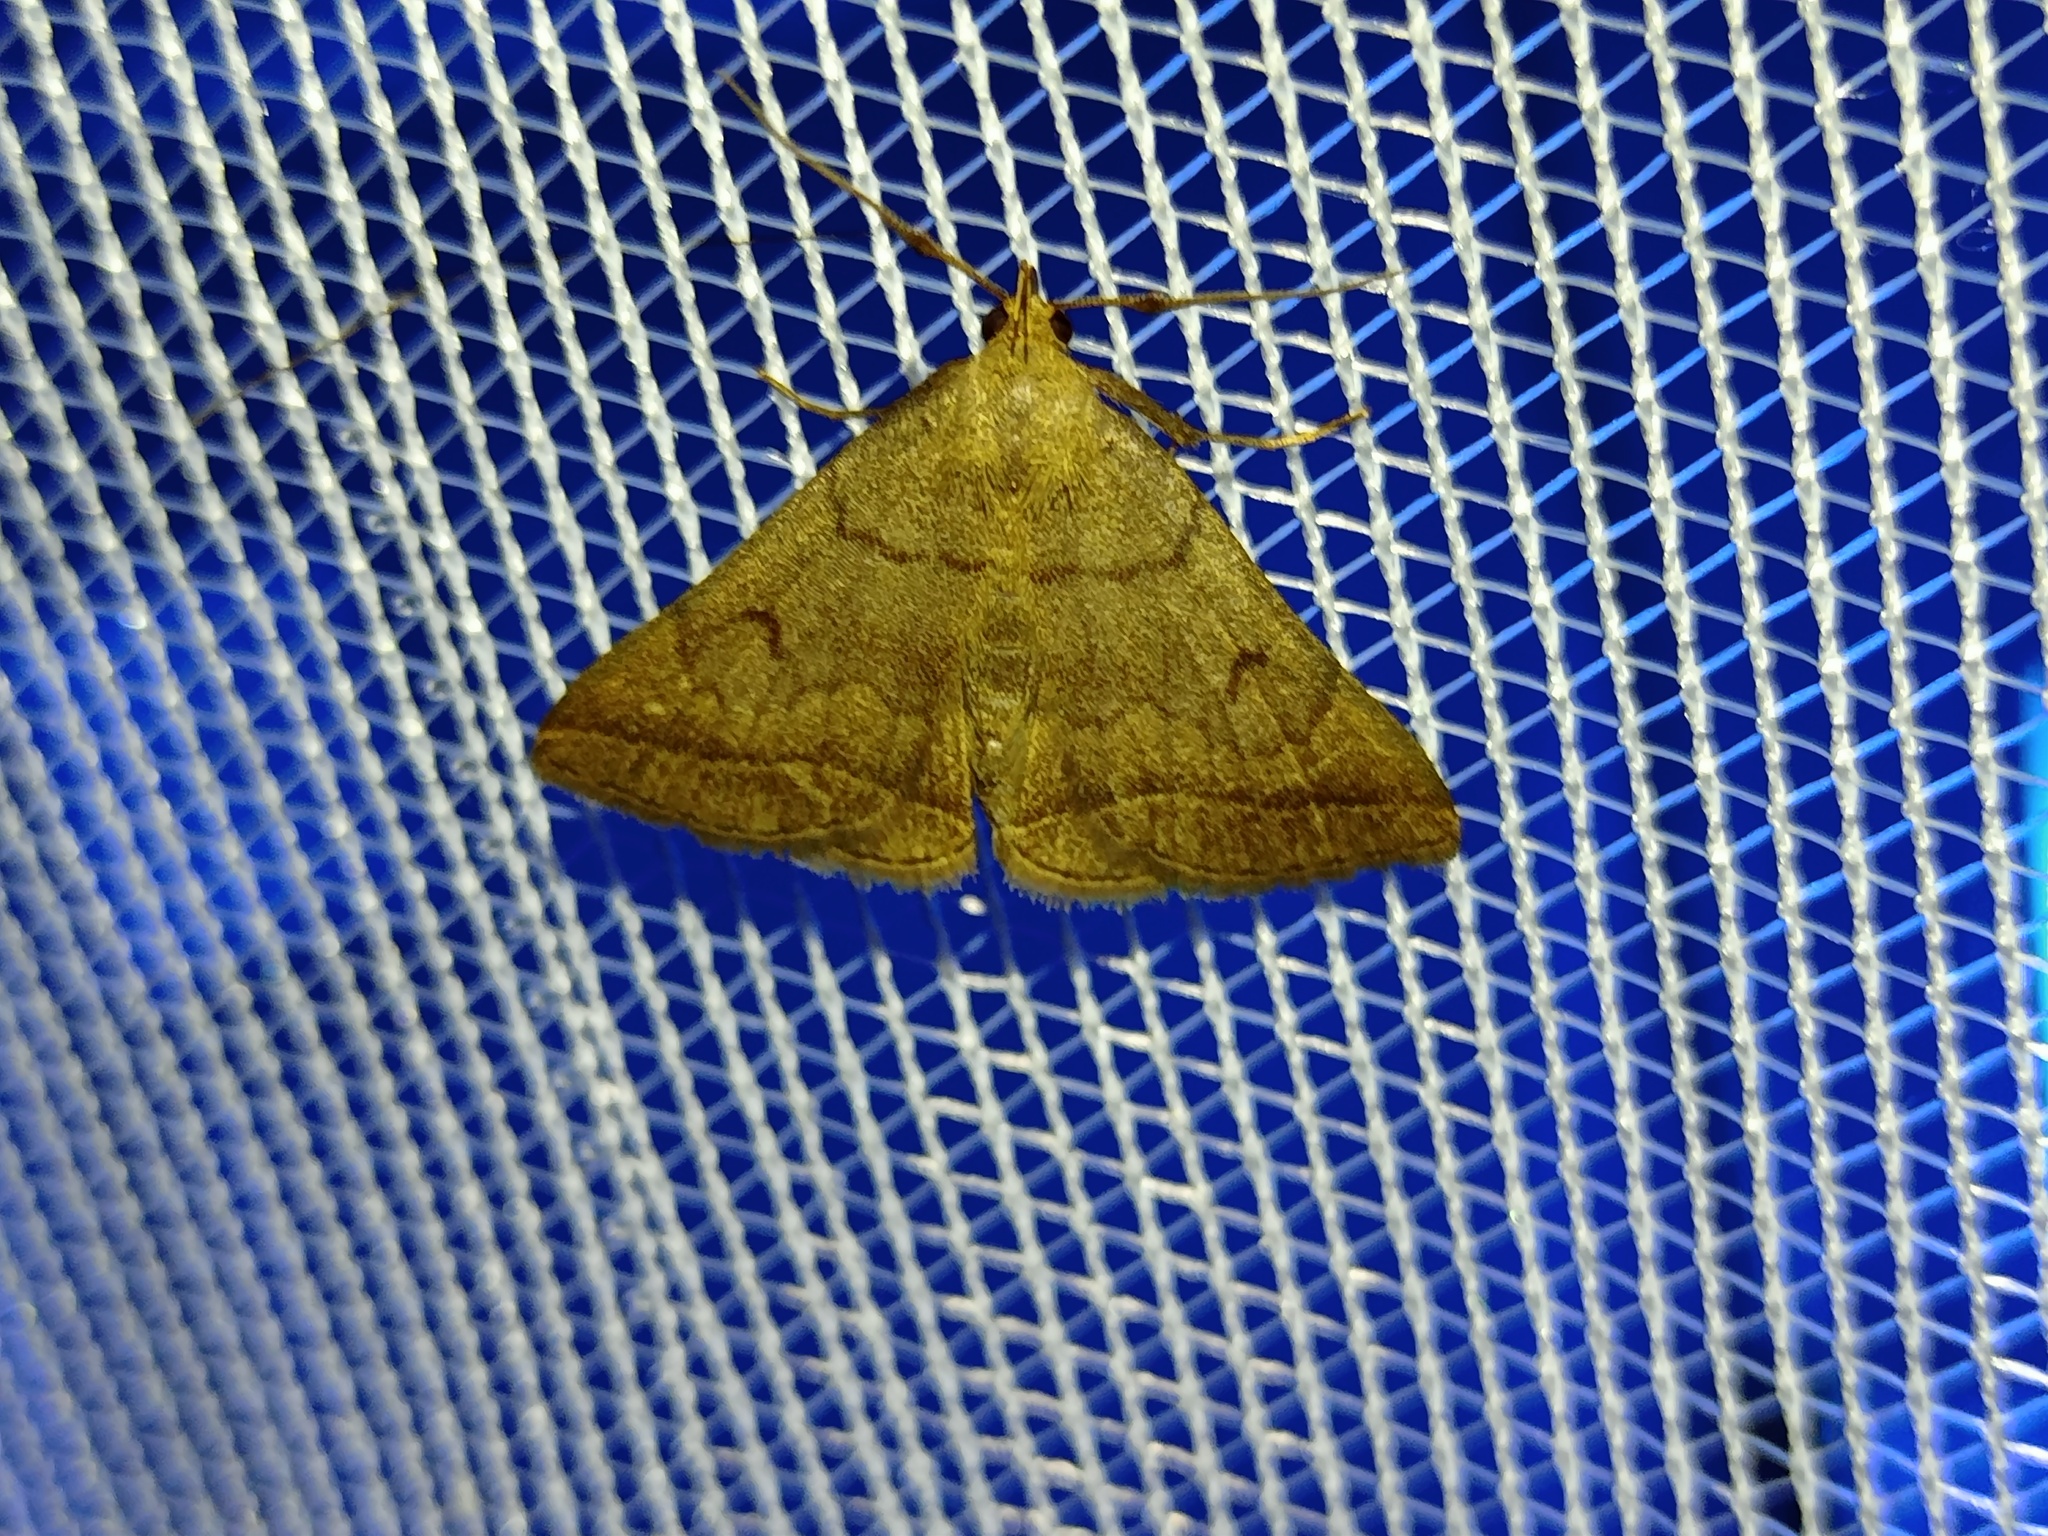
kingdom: Animalia
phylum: Arthropoda
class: Insecta
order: Lepidoptera
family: Erebidae
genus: Zanclognatha
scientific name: Zanclognatha lunalis
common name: Jubilee fan-foot
